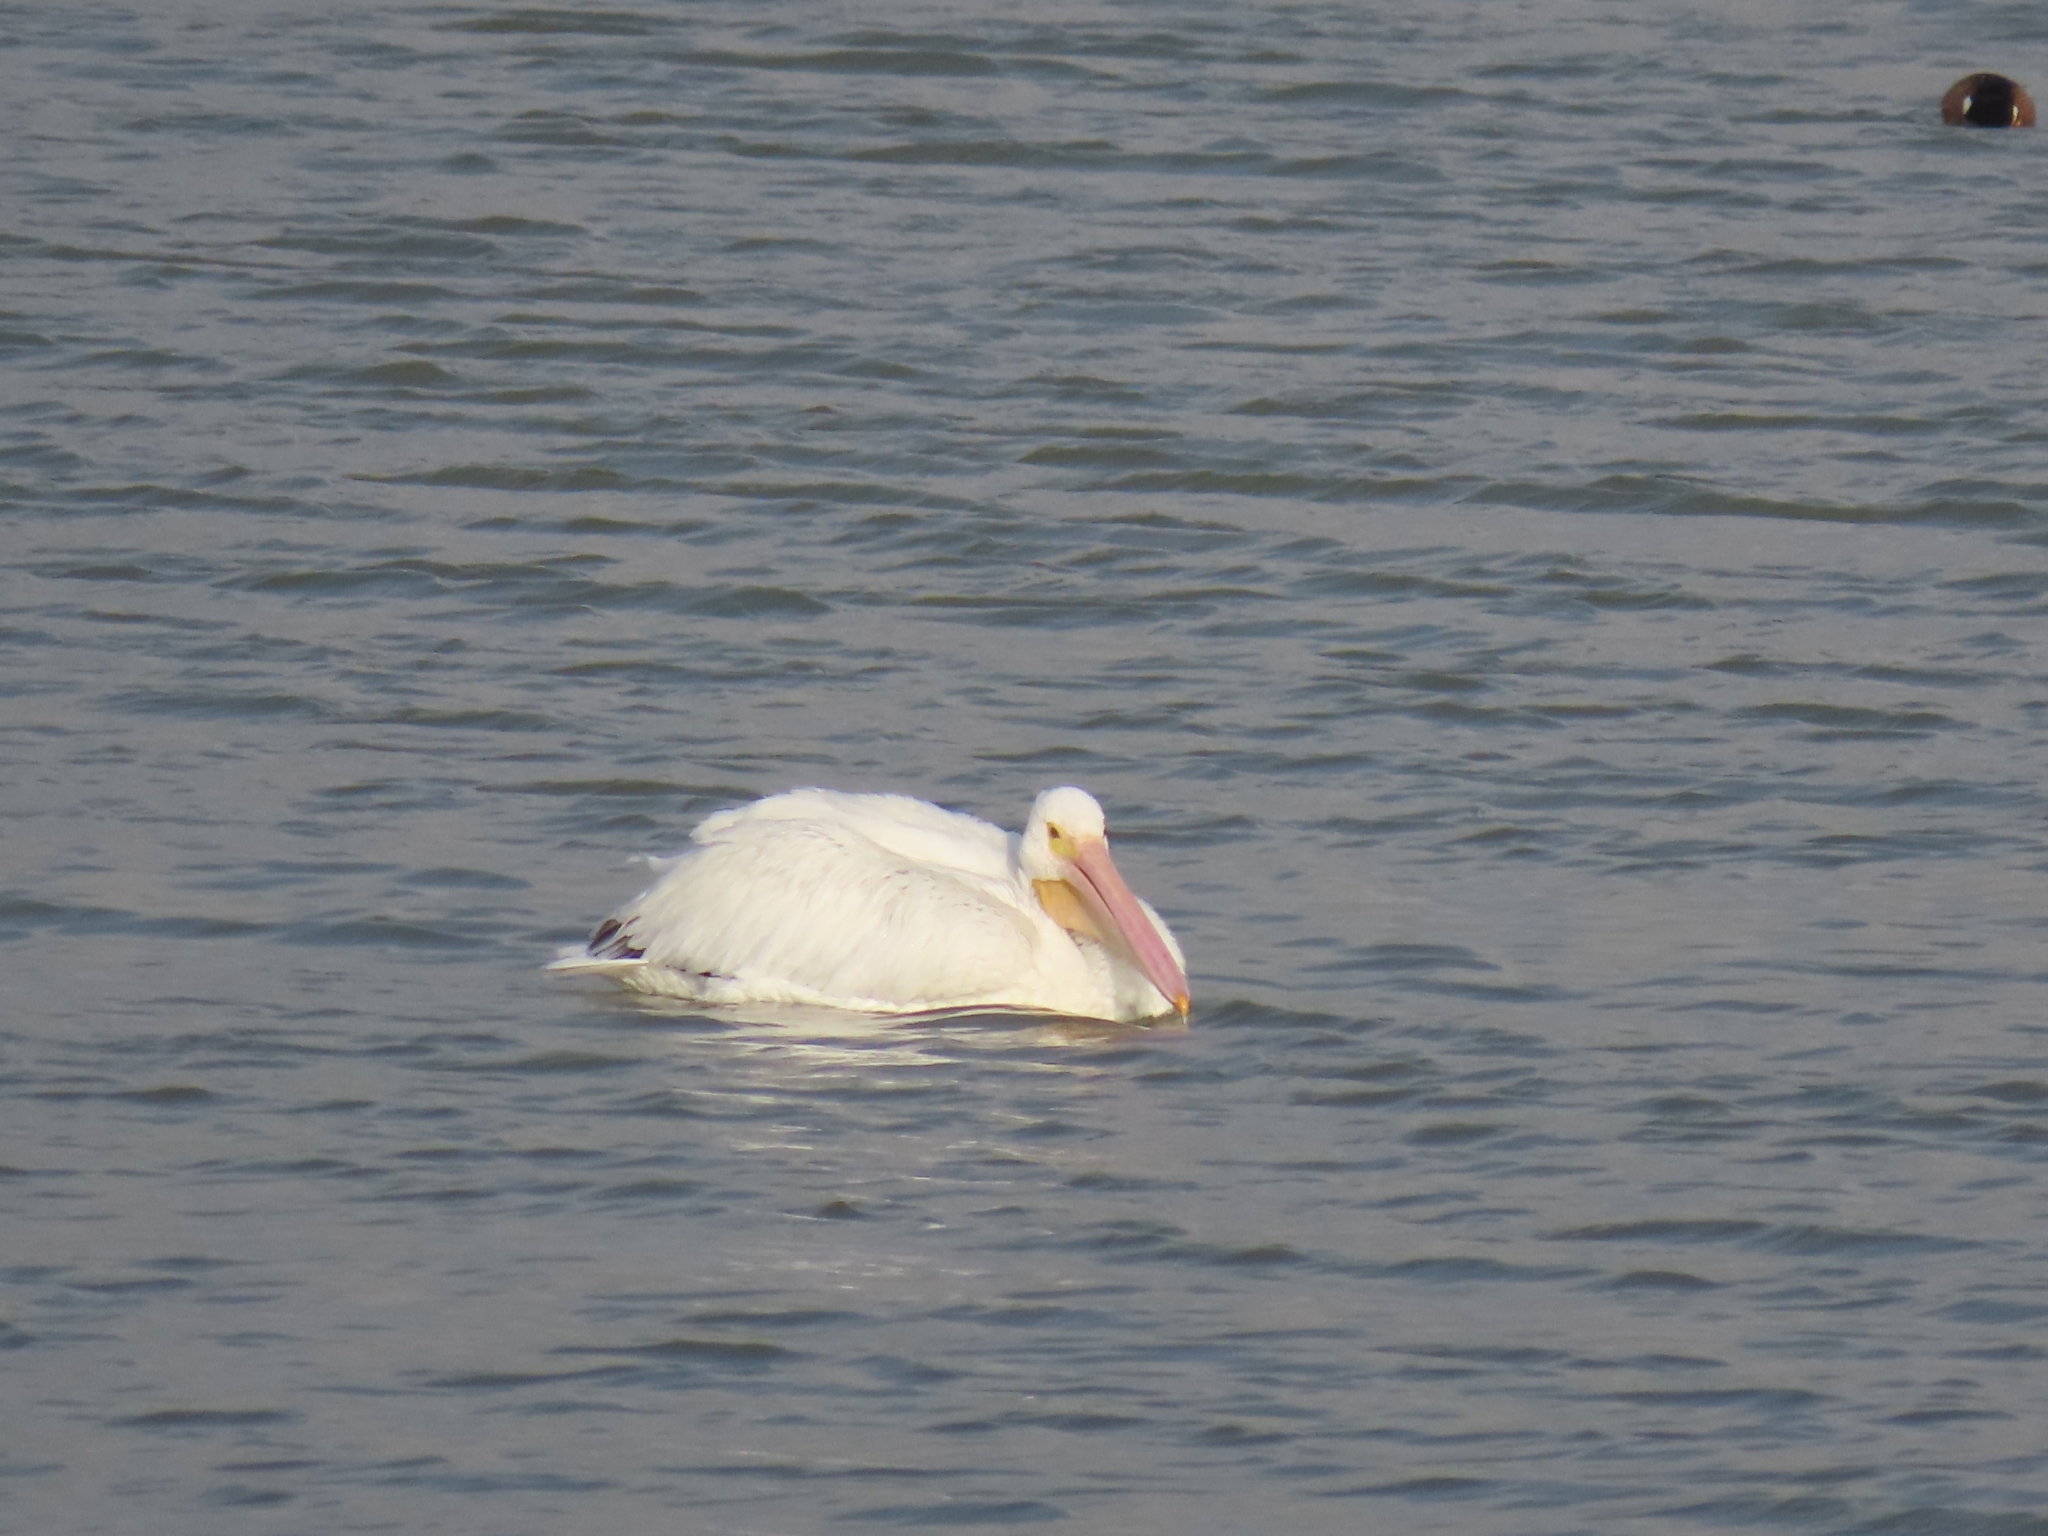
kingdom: Animalia
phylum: Chordata
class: Aves
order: Pelecaniformes
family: Pelecanidae
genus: Pelecanus
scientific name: Pelecanus erythrorhynchos
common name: American white pelican
